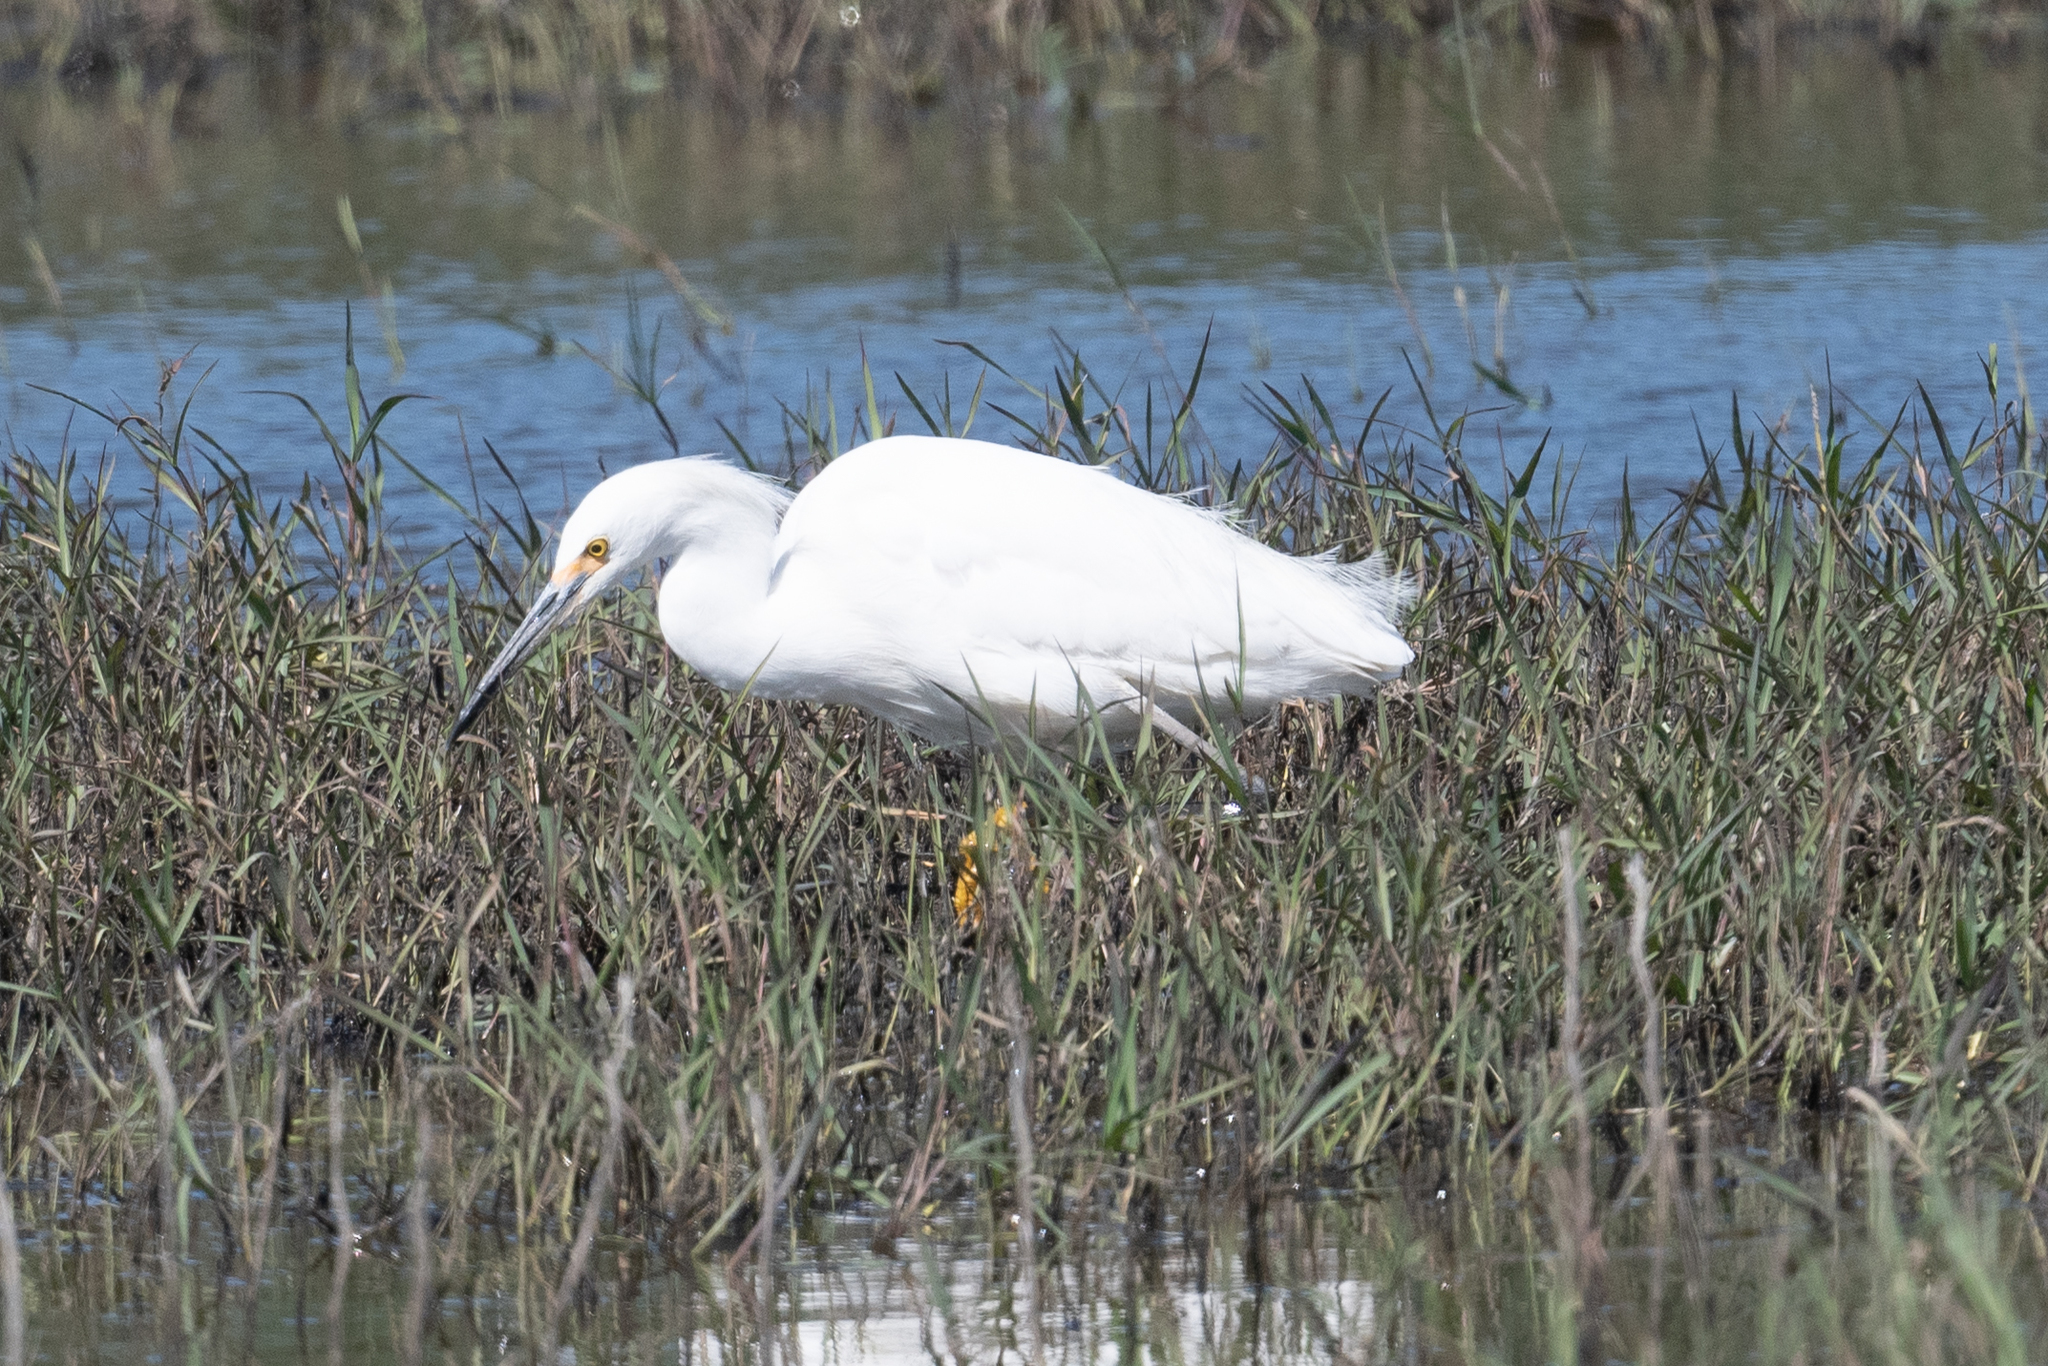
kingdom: Animalia
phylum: Chordata
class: Aves
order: Pelecaniformes
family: Ardeidae
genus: Egretta
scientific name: Egretta thula
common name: Snowy egret
